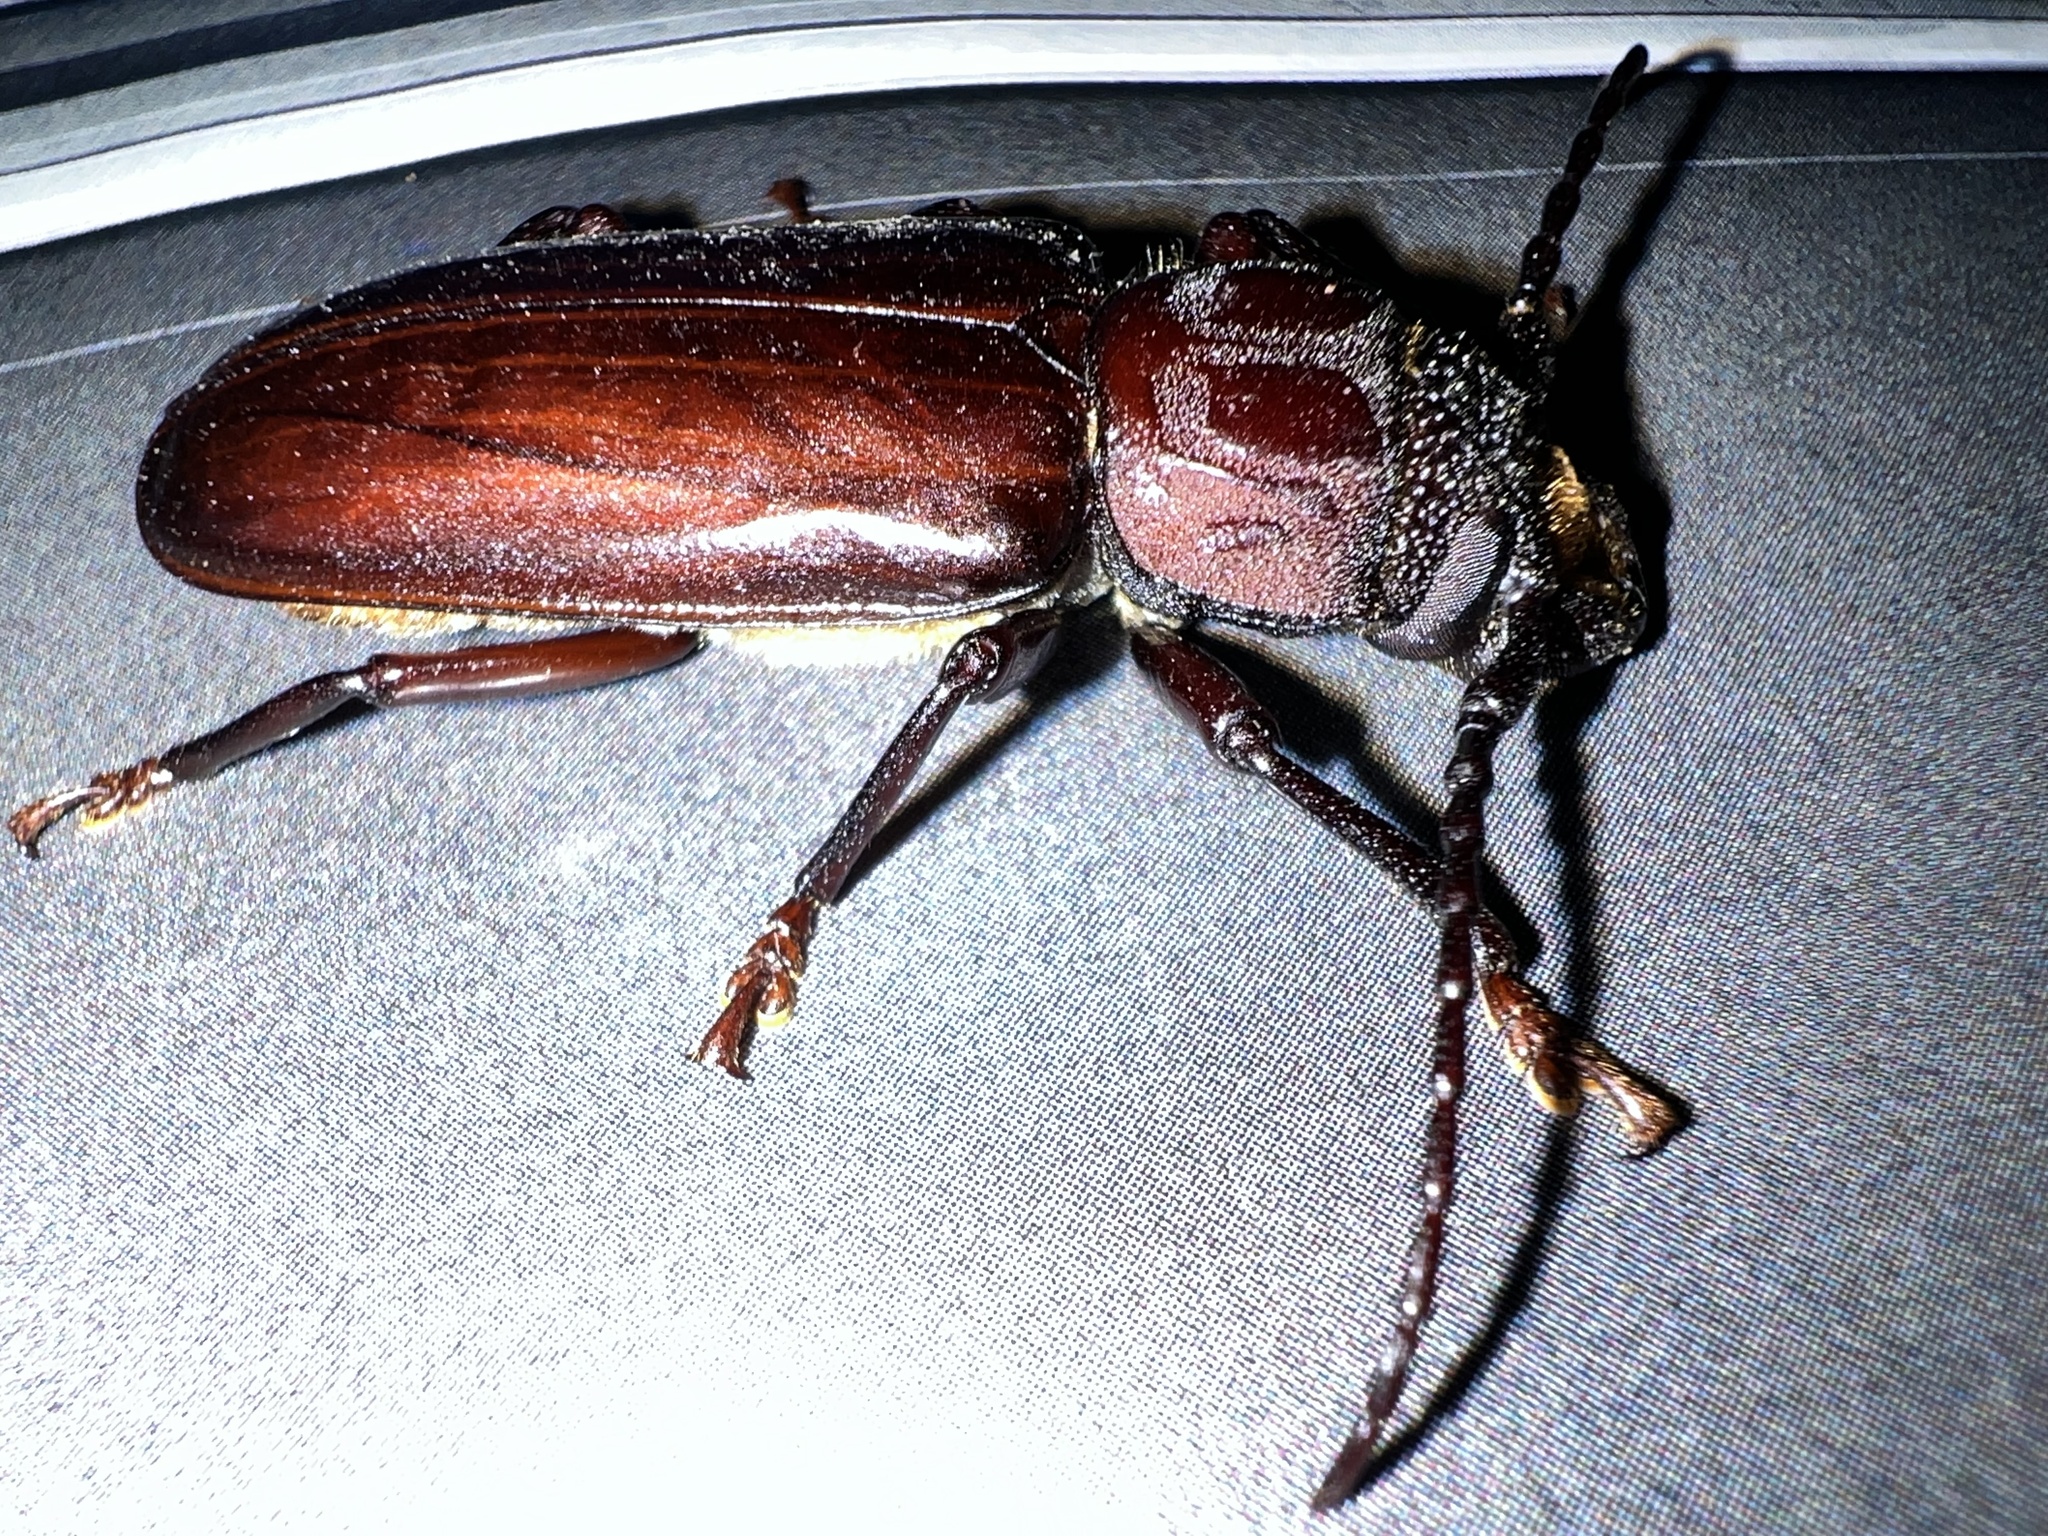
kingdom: Animalia
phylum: Arthropoda
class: Insecta
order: Coleoptera
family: Cerambycidae
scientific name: Cerambycidae
